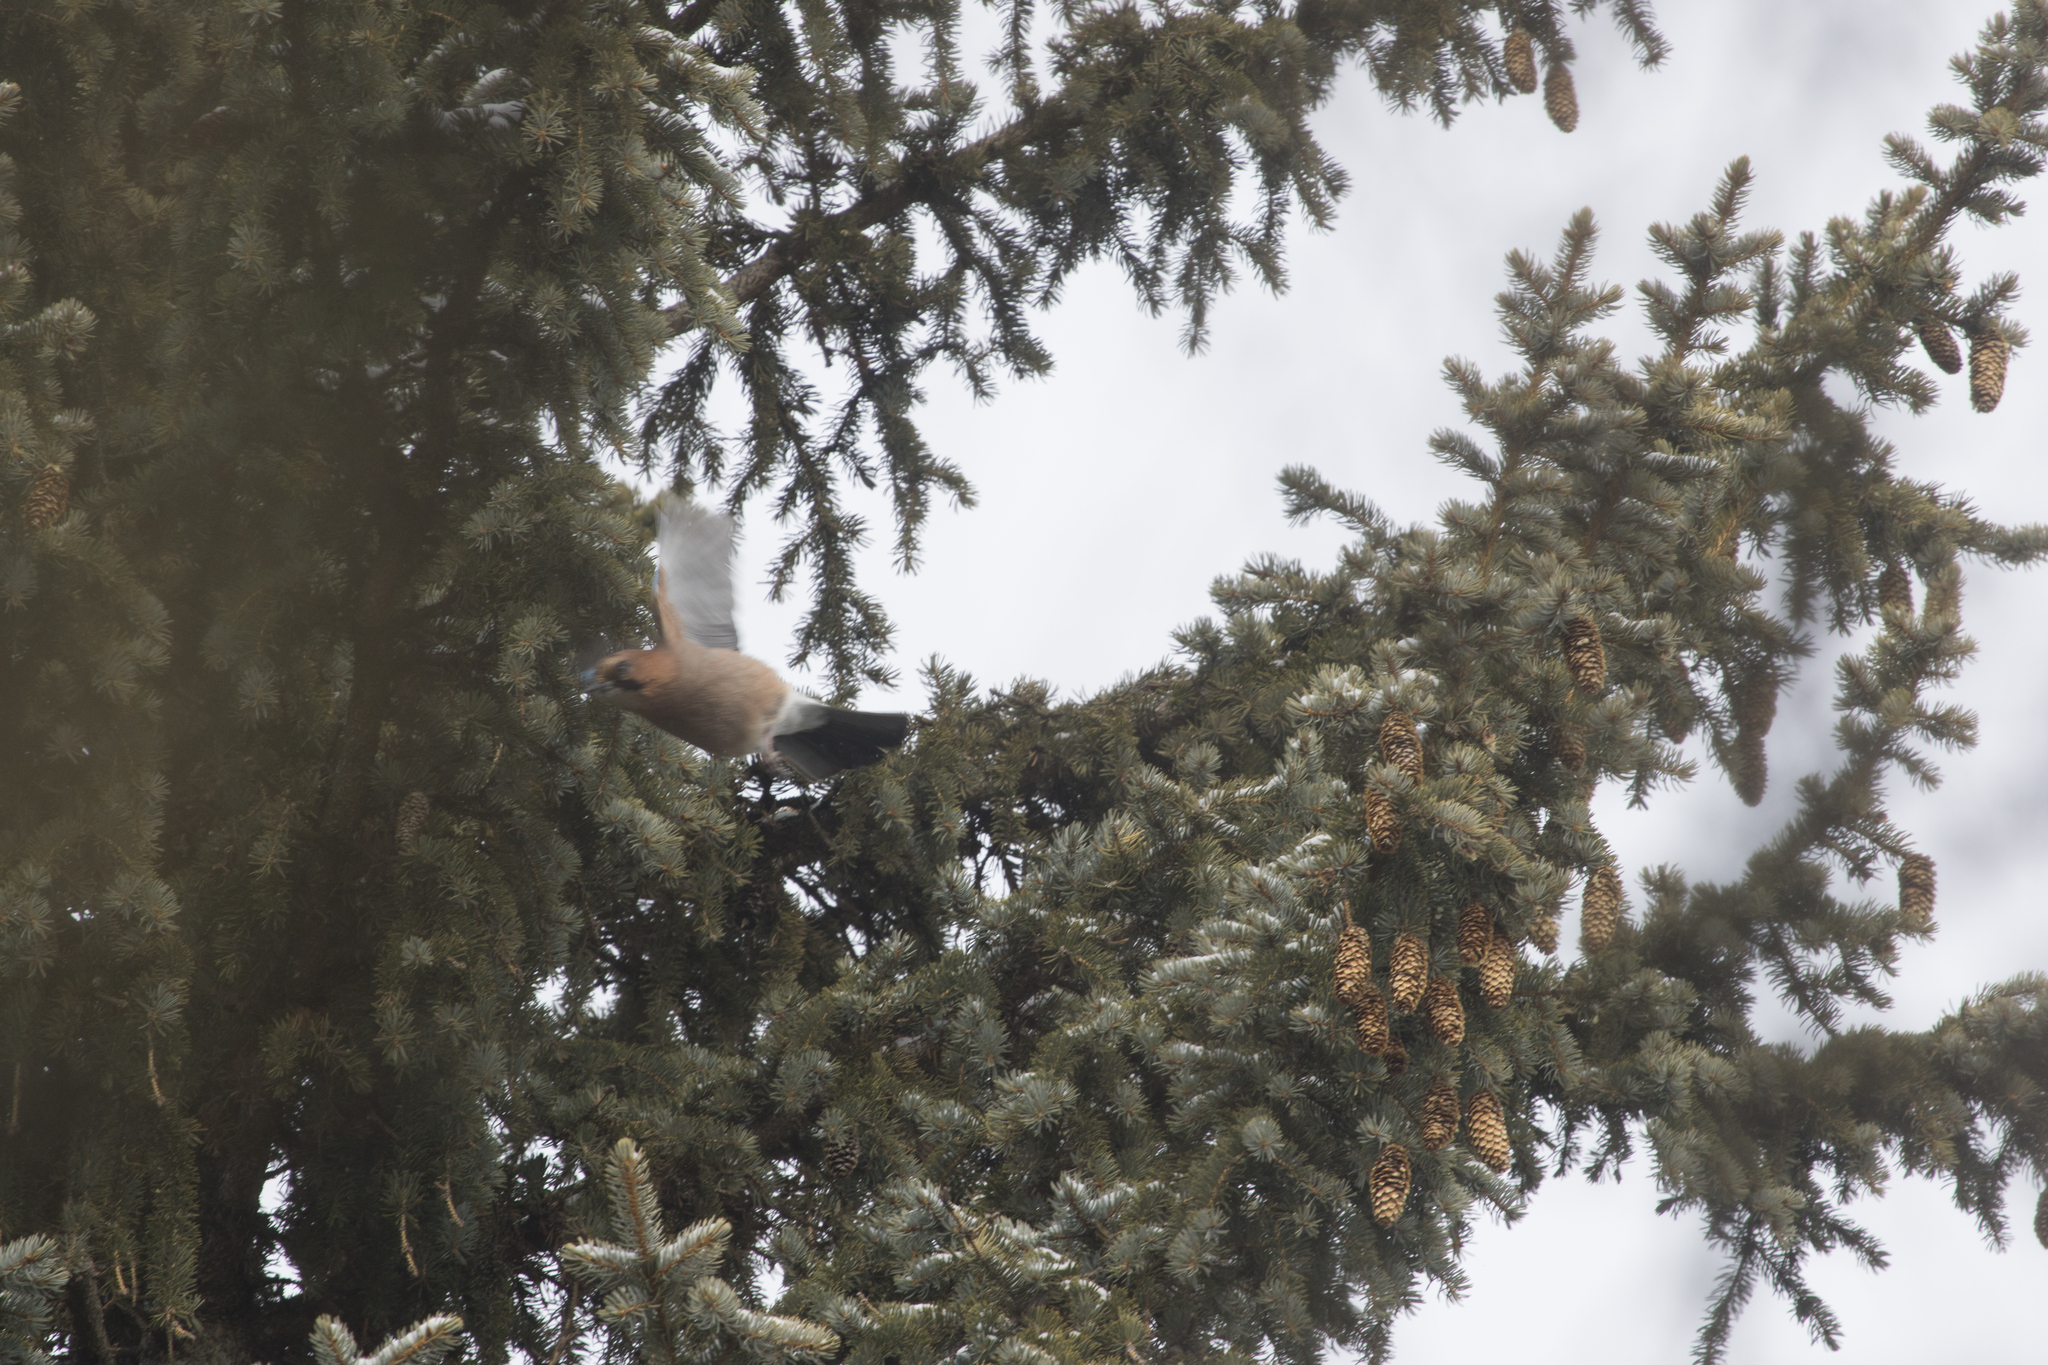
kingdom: Animalia
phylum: Chordata
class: Aves
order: Passeriformes
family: Corvidae
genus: Garrulus
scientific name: Garrulus glandarius
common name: Eurasian jay
